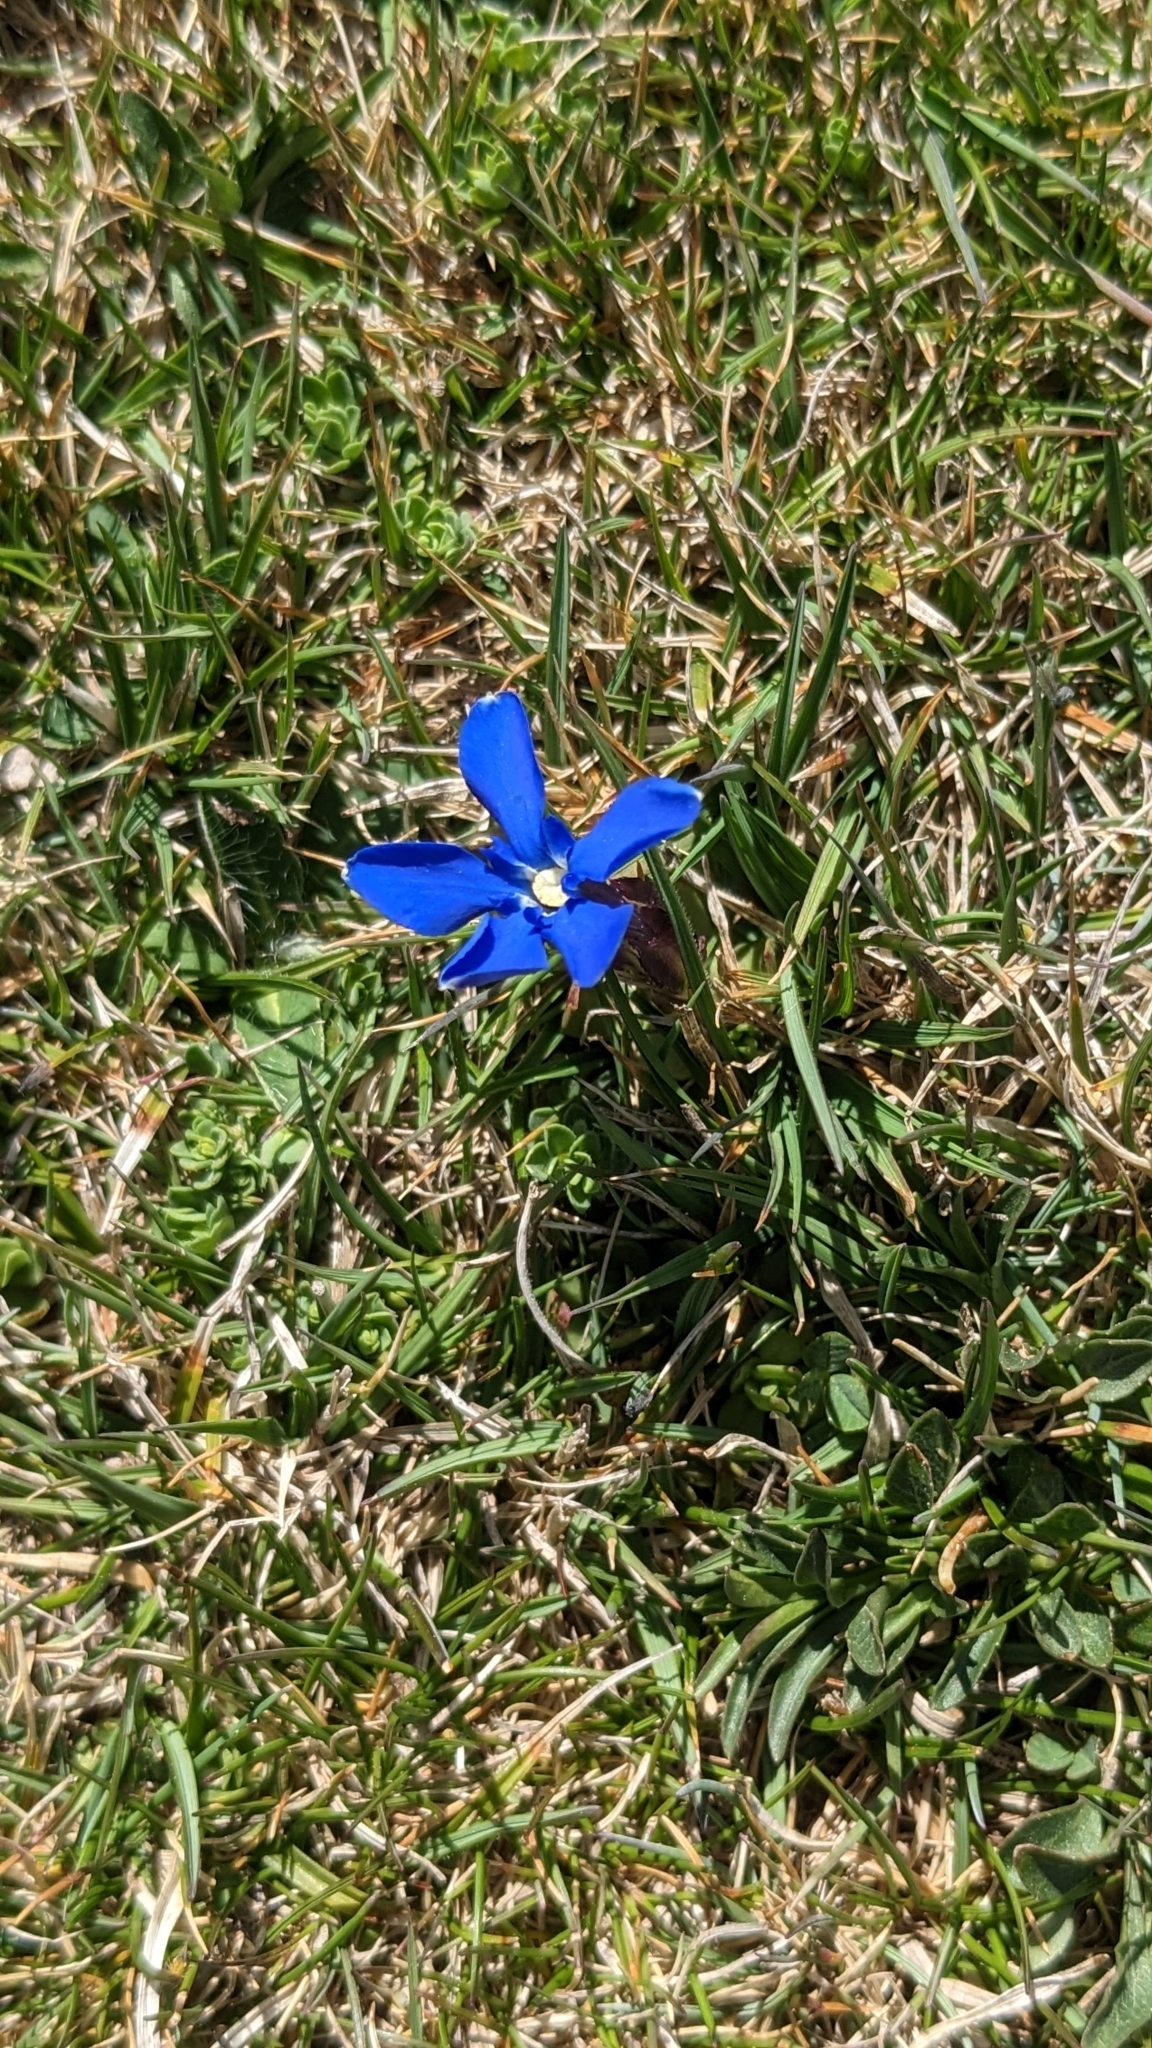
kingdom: Plantae
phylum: Tracheophyta
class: Magnoliopsida
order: Gentianales
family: Gentianaceae
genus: Gentiana
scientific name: Gentiana verna
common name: Spring gentian
